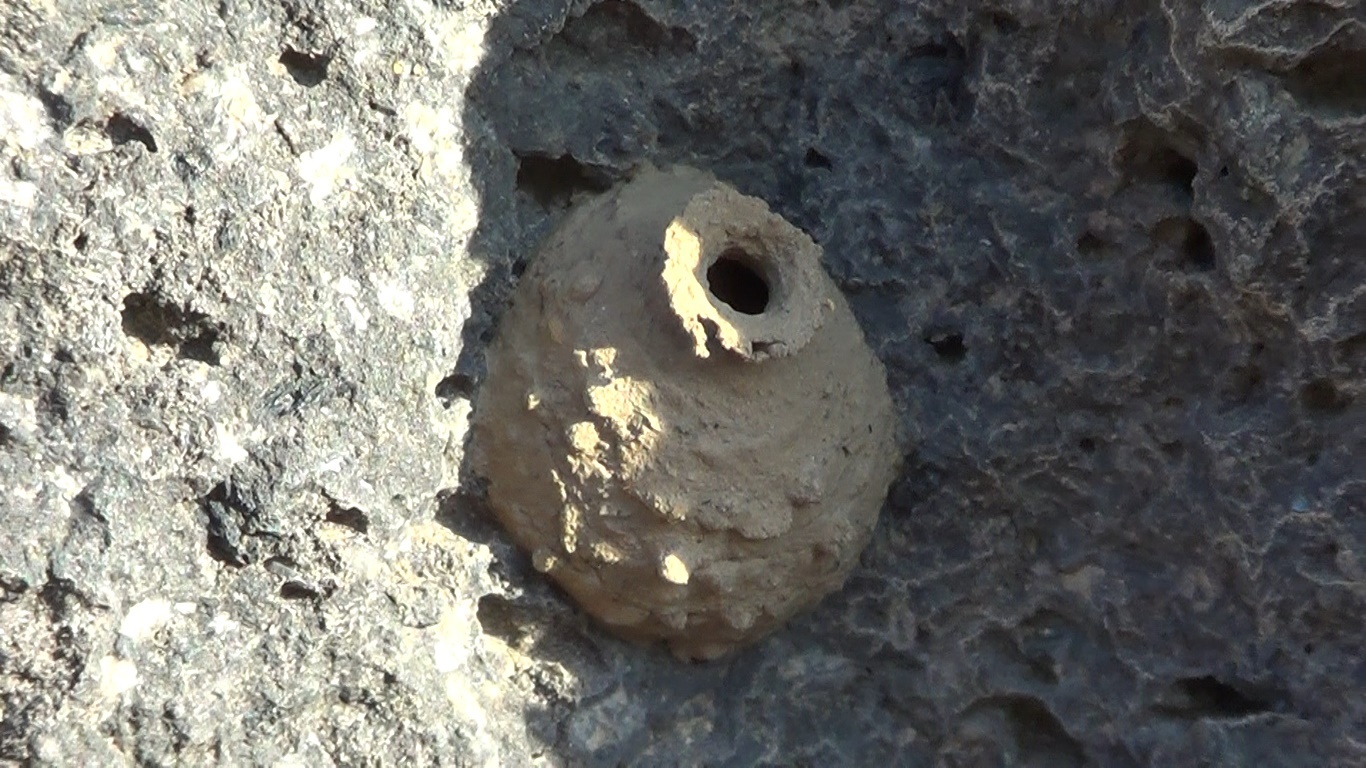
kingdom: Animalia
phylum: Arthropoda
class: Insecta
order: Hymenoptera
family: Vespidae
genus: Eumenes
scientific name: Eumenes
